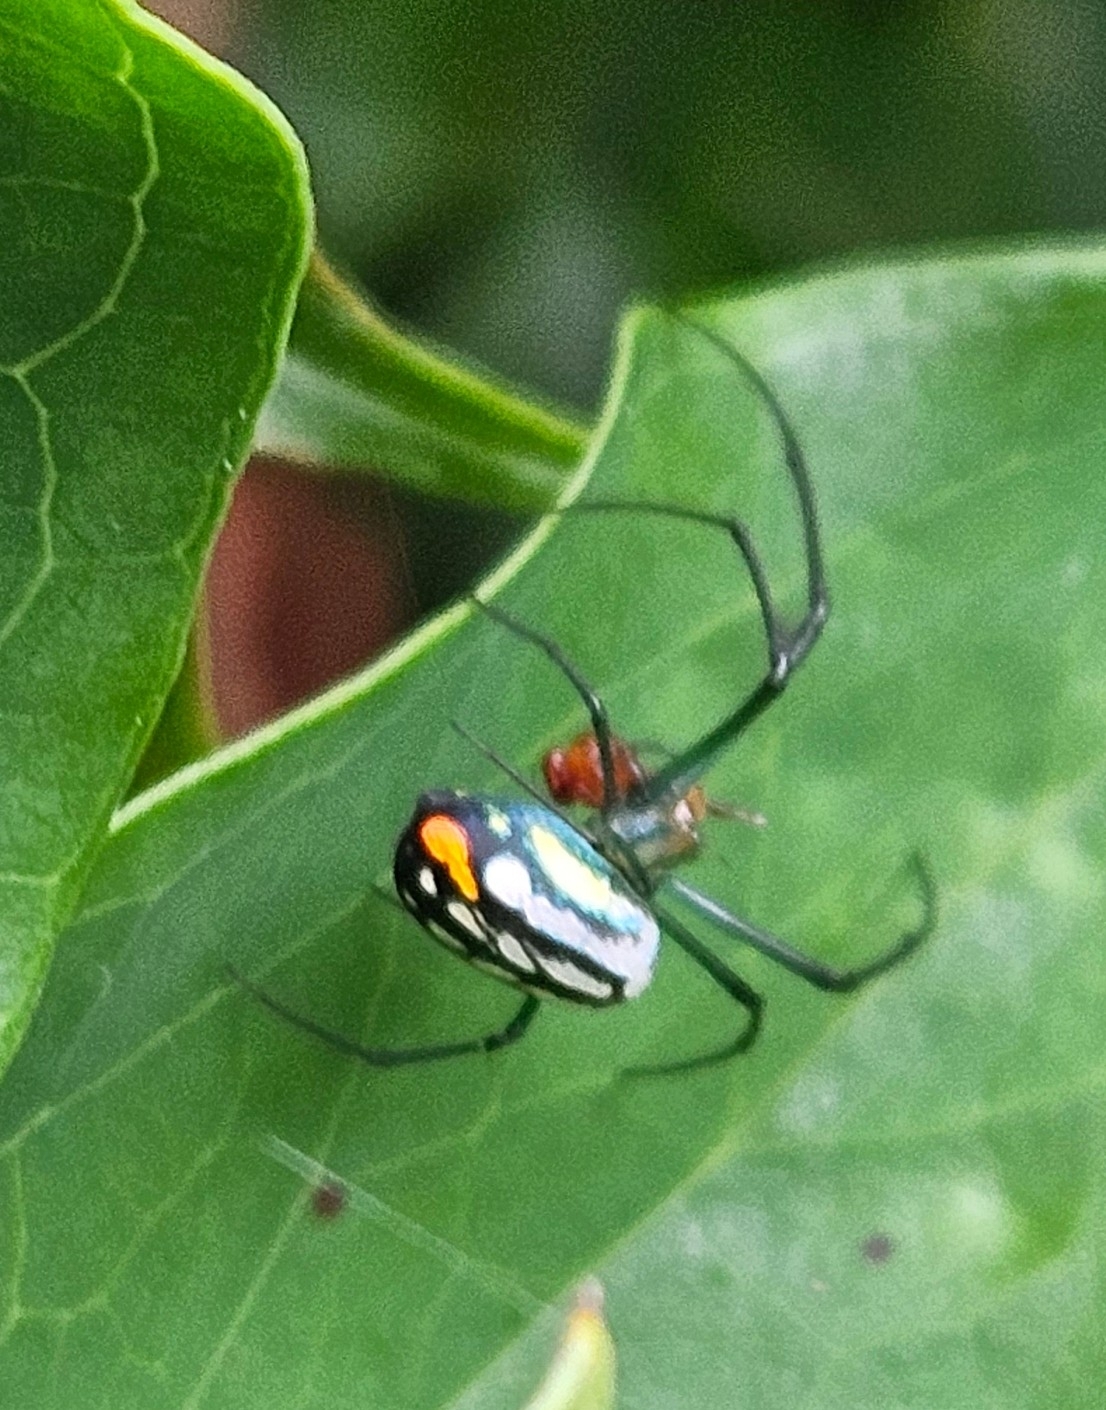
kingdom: Animalia
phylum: Arthropoda
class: Arachnida
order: Araneae
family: Tetragnathidae
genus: Leucauge
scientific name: Leucauge argyrobapta
